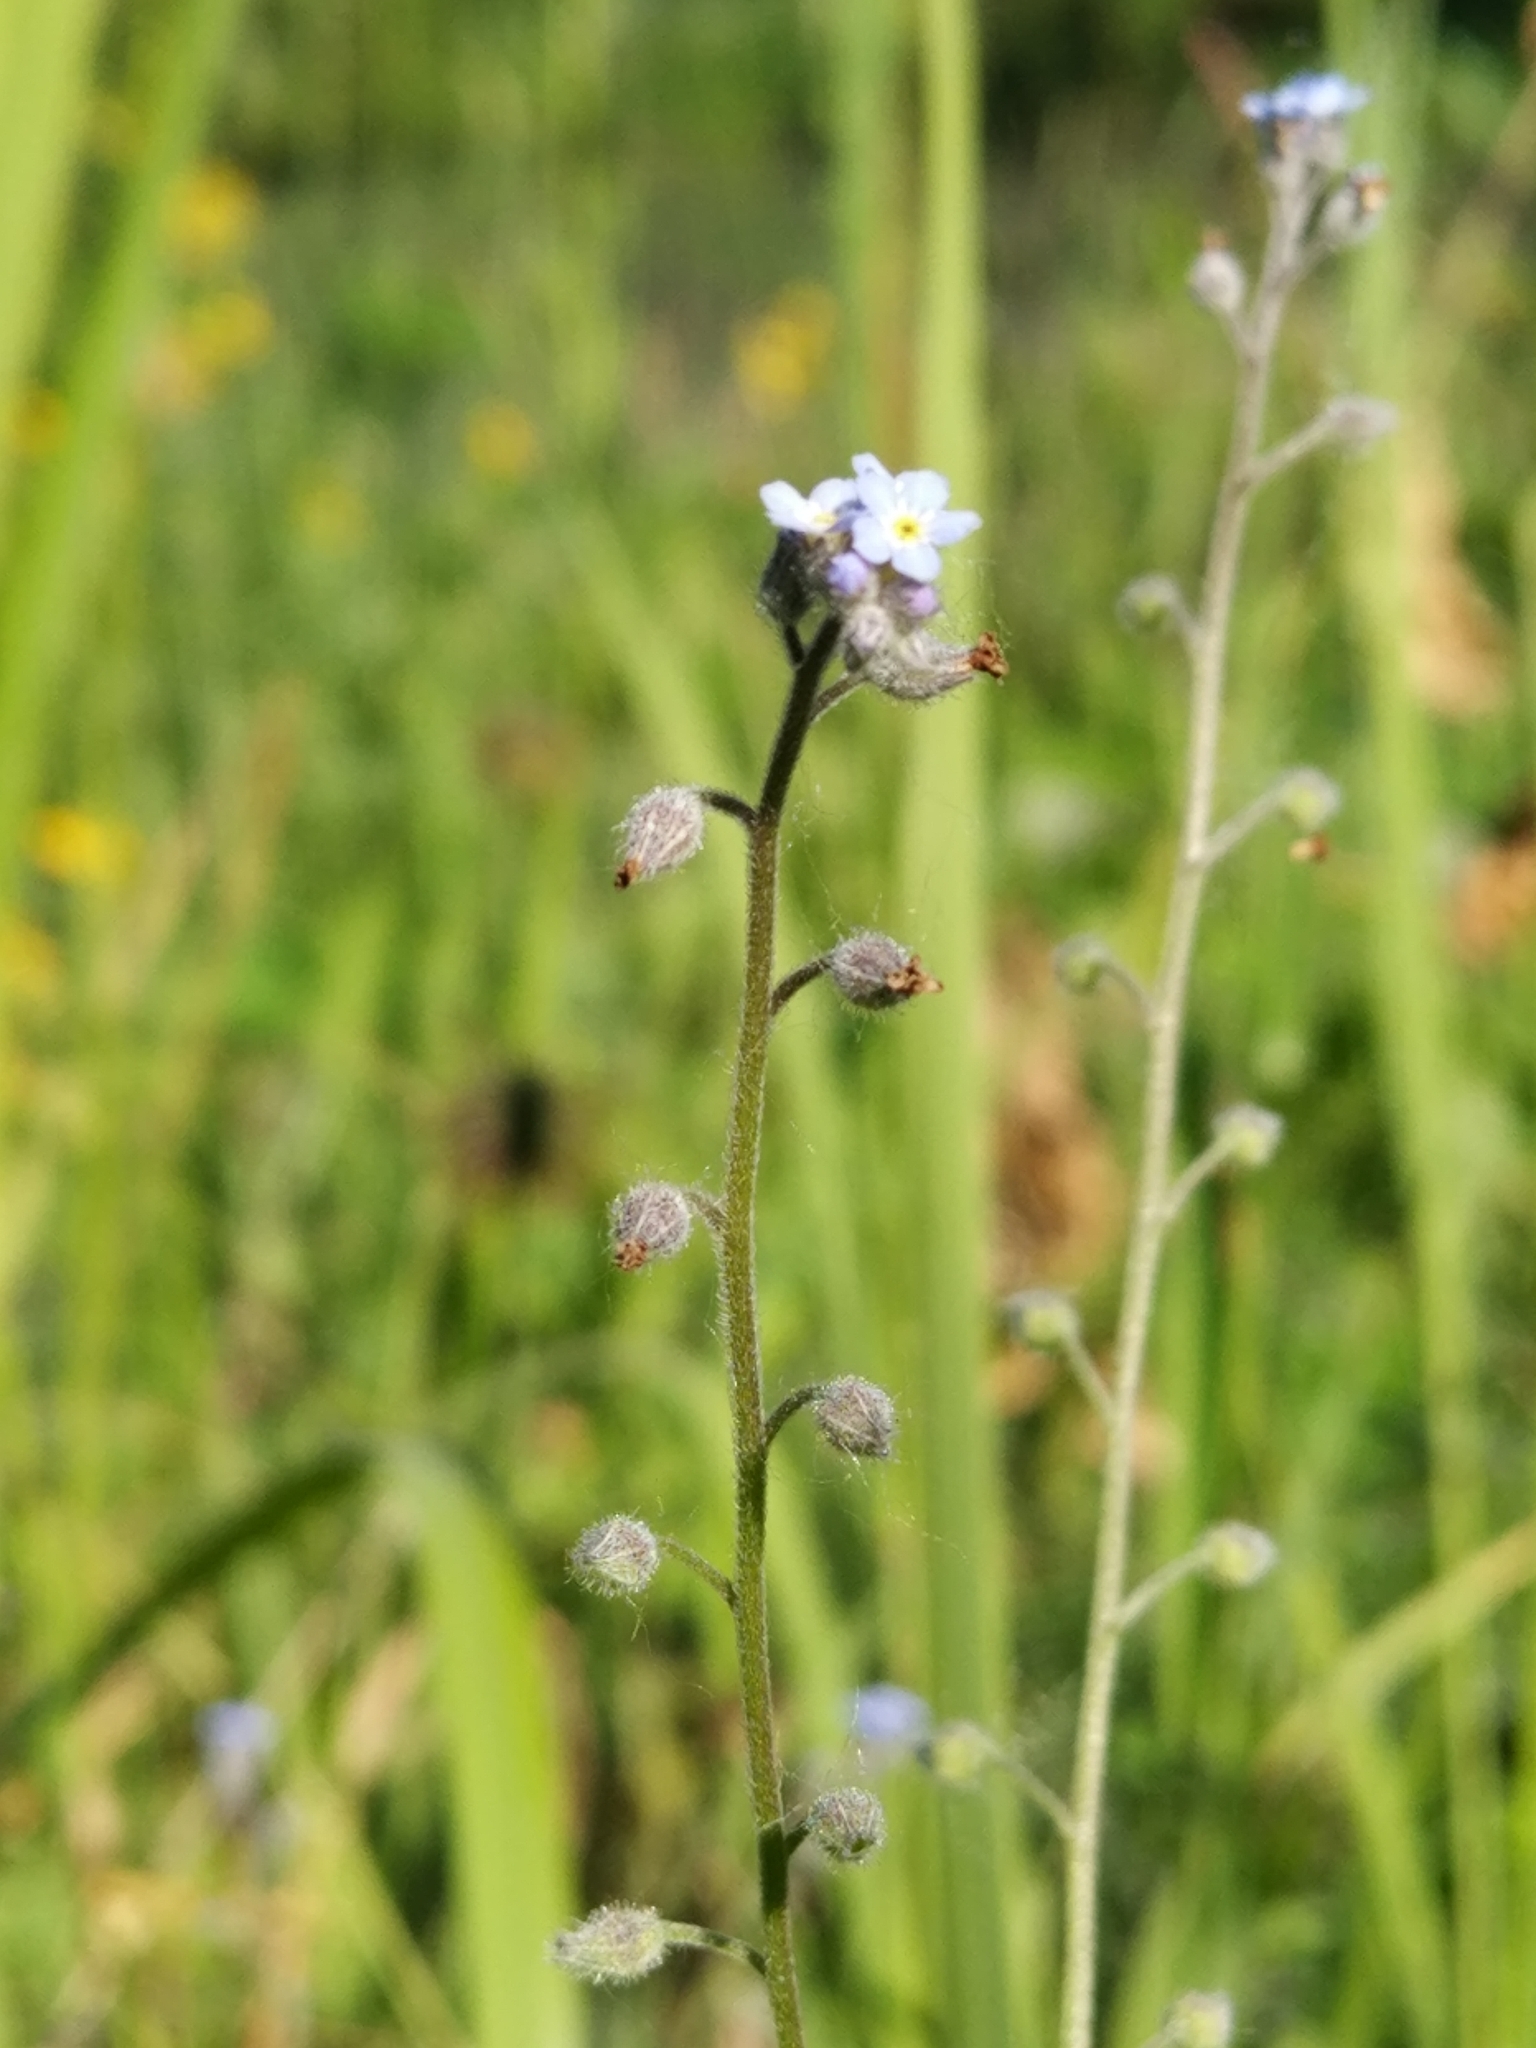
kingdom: Plantae
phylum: Tracheophyta
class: Magnoliopsida
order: Boraginales
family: Boraginaceae
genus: Myosotis
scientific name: Myosotis arvensis
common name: Field forget-me-not
